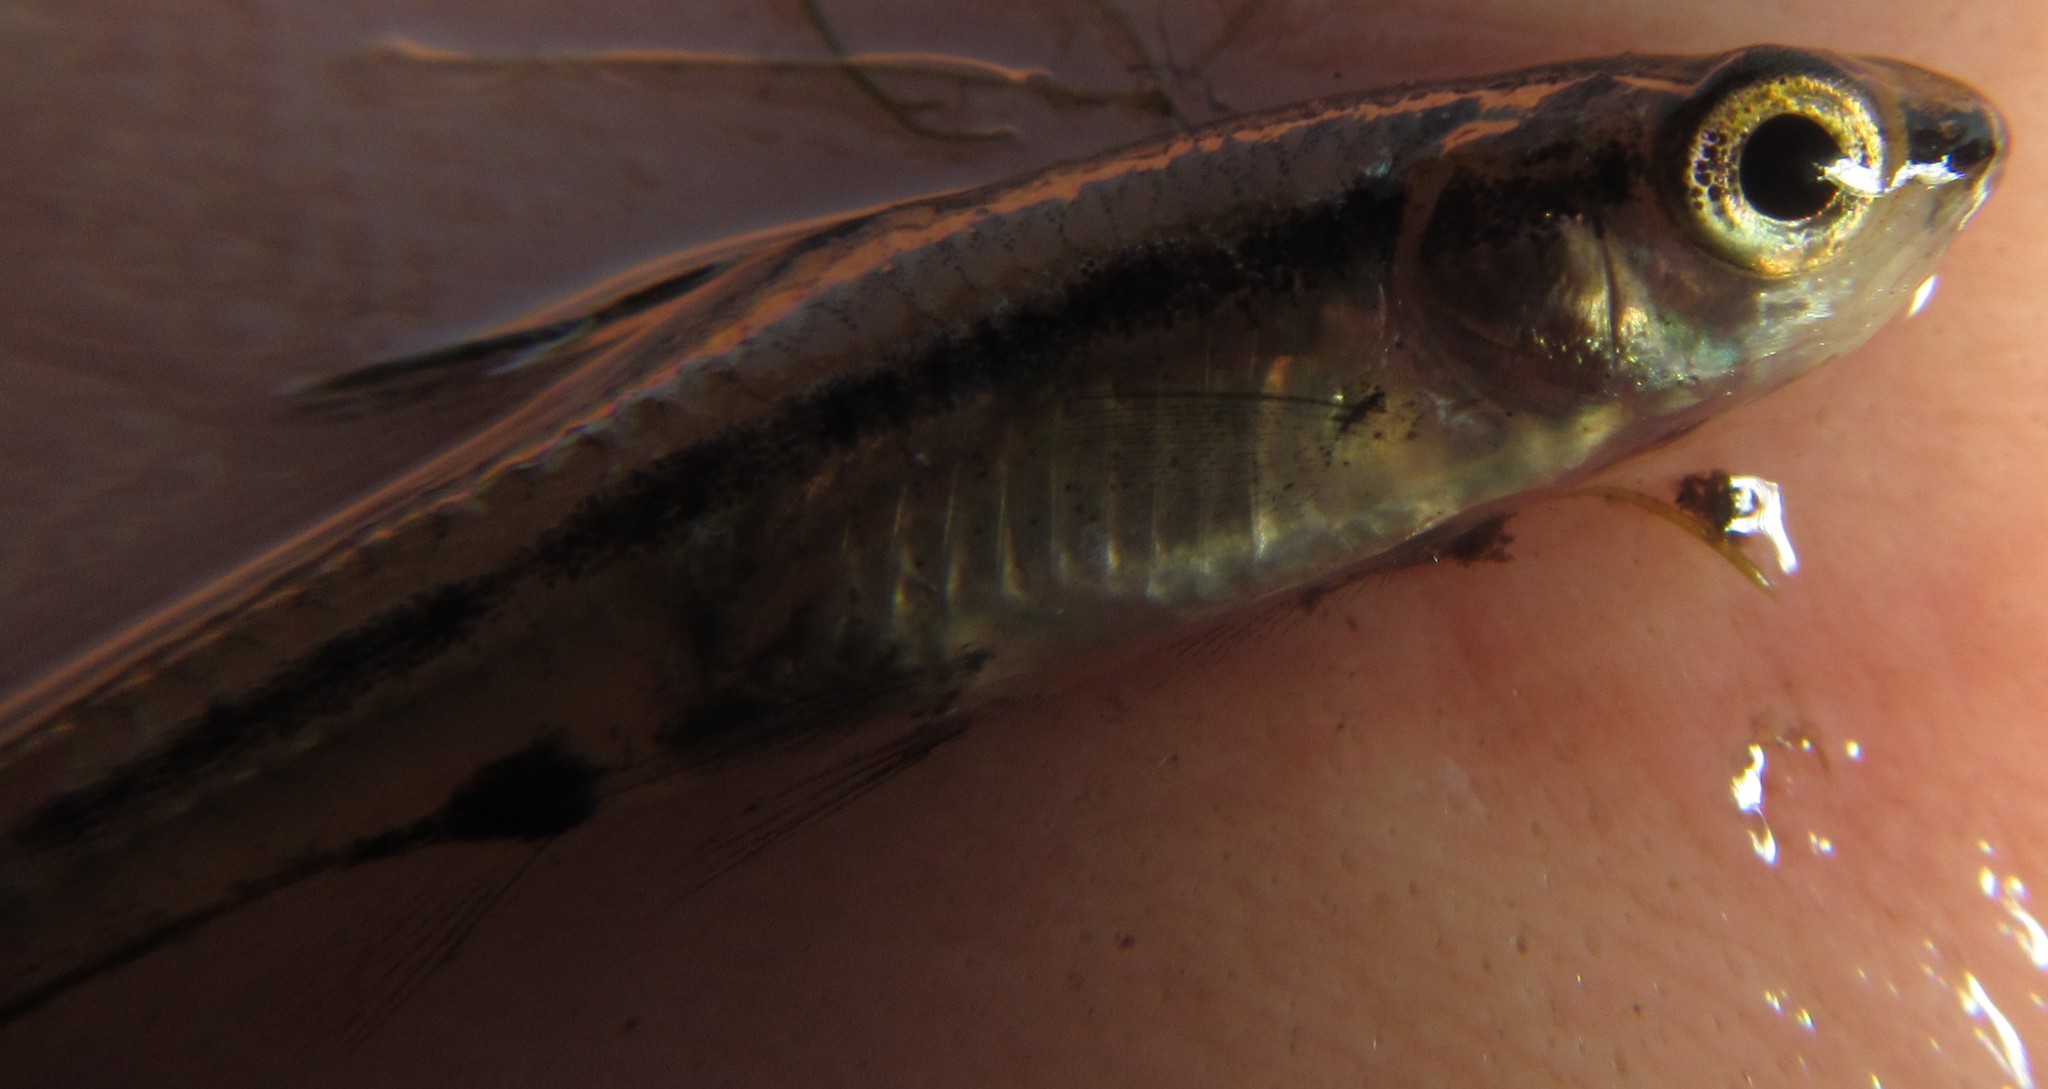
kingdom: Animalia
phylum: Chordata
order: Cypriniformes
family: Cyprinidae
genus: Enteromius
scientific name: Enteromius barnardi
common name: Blackback barb
